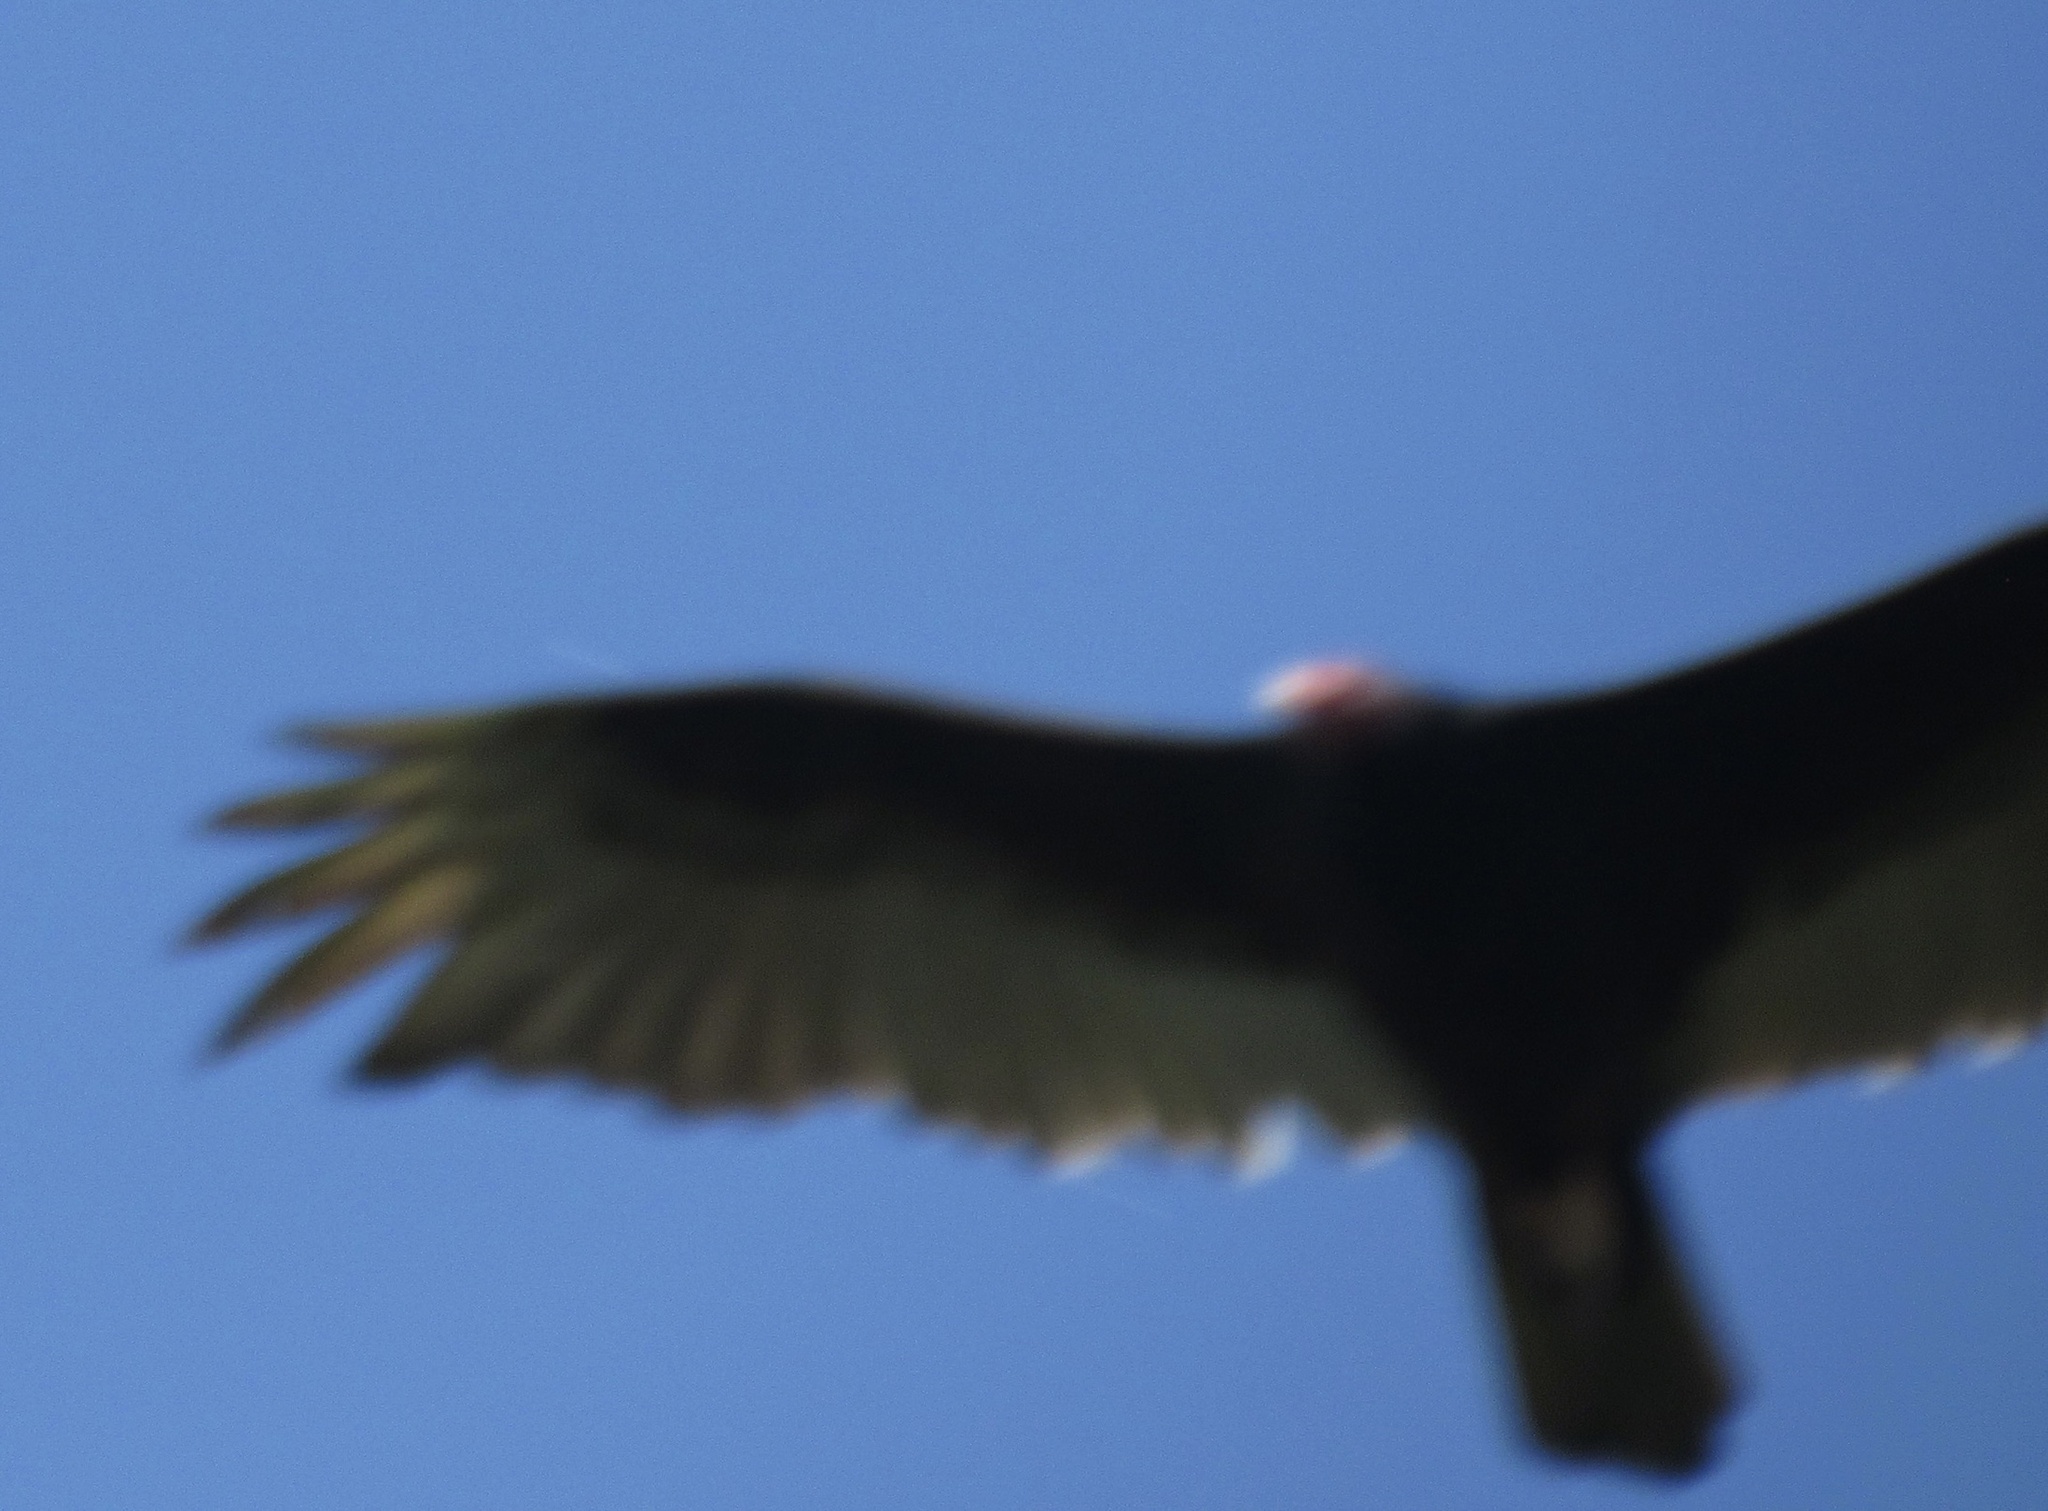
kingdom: Animalia
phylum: Chordata
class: Aves
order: Accipitriformes
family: Cathartidae
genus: Cathartes
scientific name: Cathartes aura
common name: Turkey vulture
